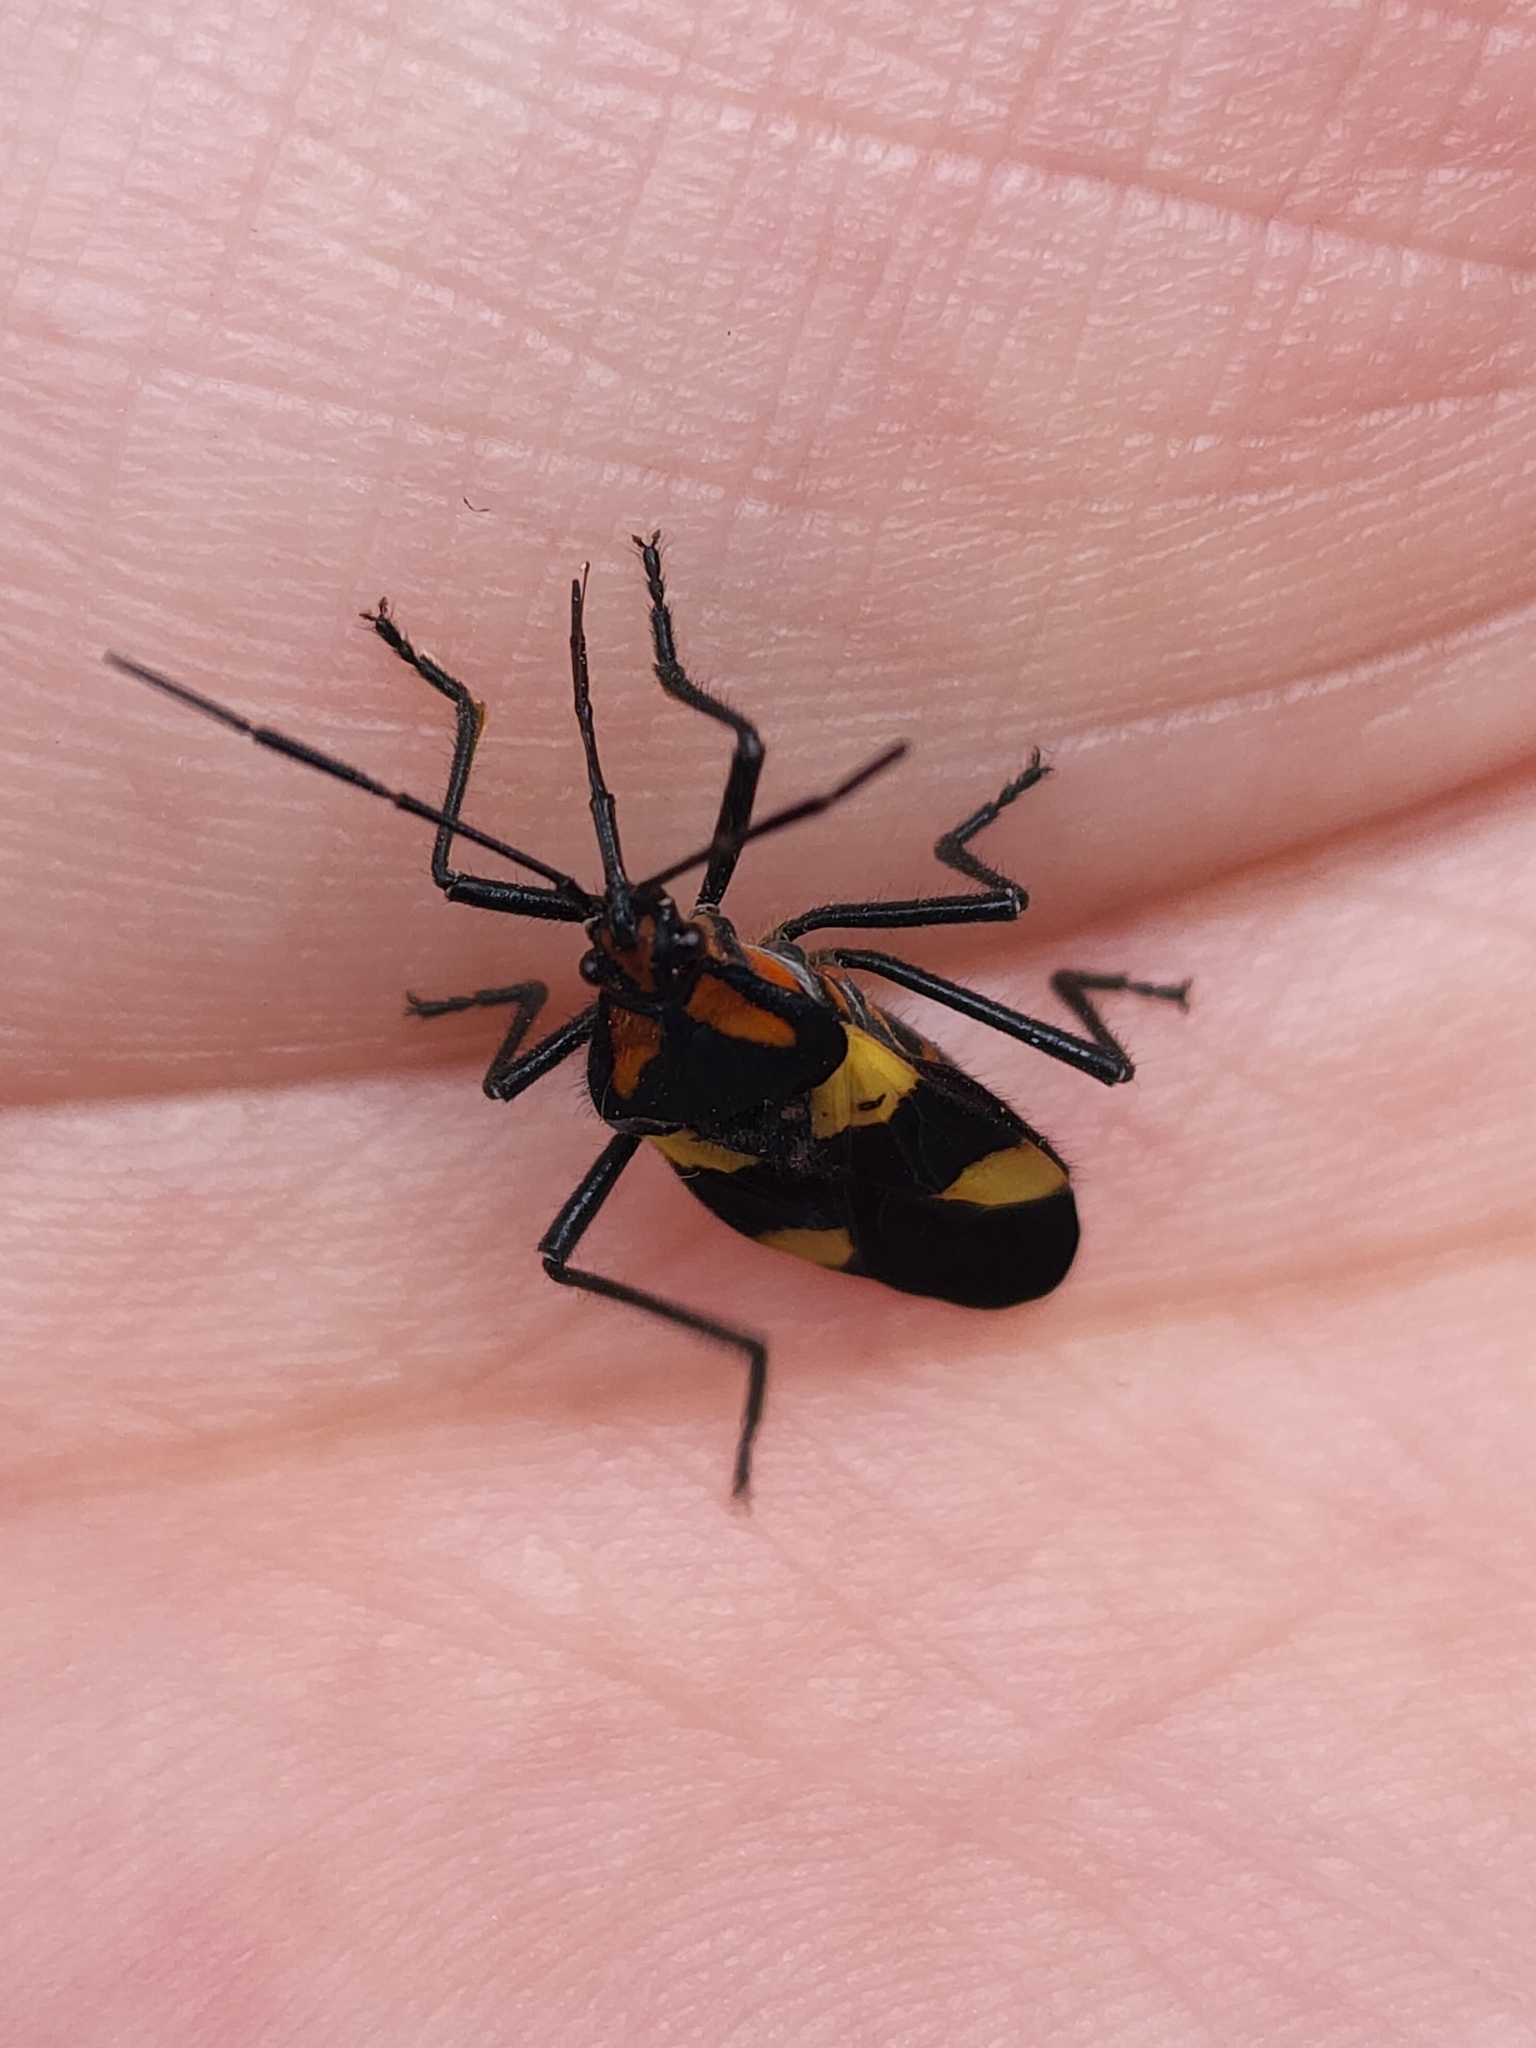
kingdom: Animalia
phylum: Arthropoda
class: Insecta
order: Hemiptera
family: Lygaeidae
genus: Oncopeltus
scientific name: Oncopeltus varicolor
